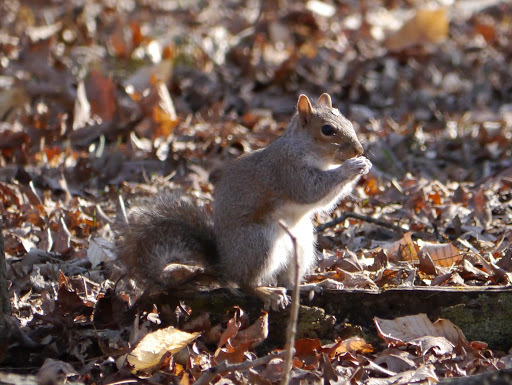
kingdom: Animalia
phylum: Chordata
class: Mammalia
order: Rodentia
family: Sciuridae
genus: Sciurus
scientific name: Sciurus carolinensis
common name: Eastern gray squirrel
